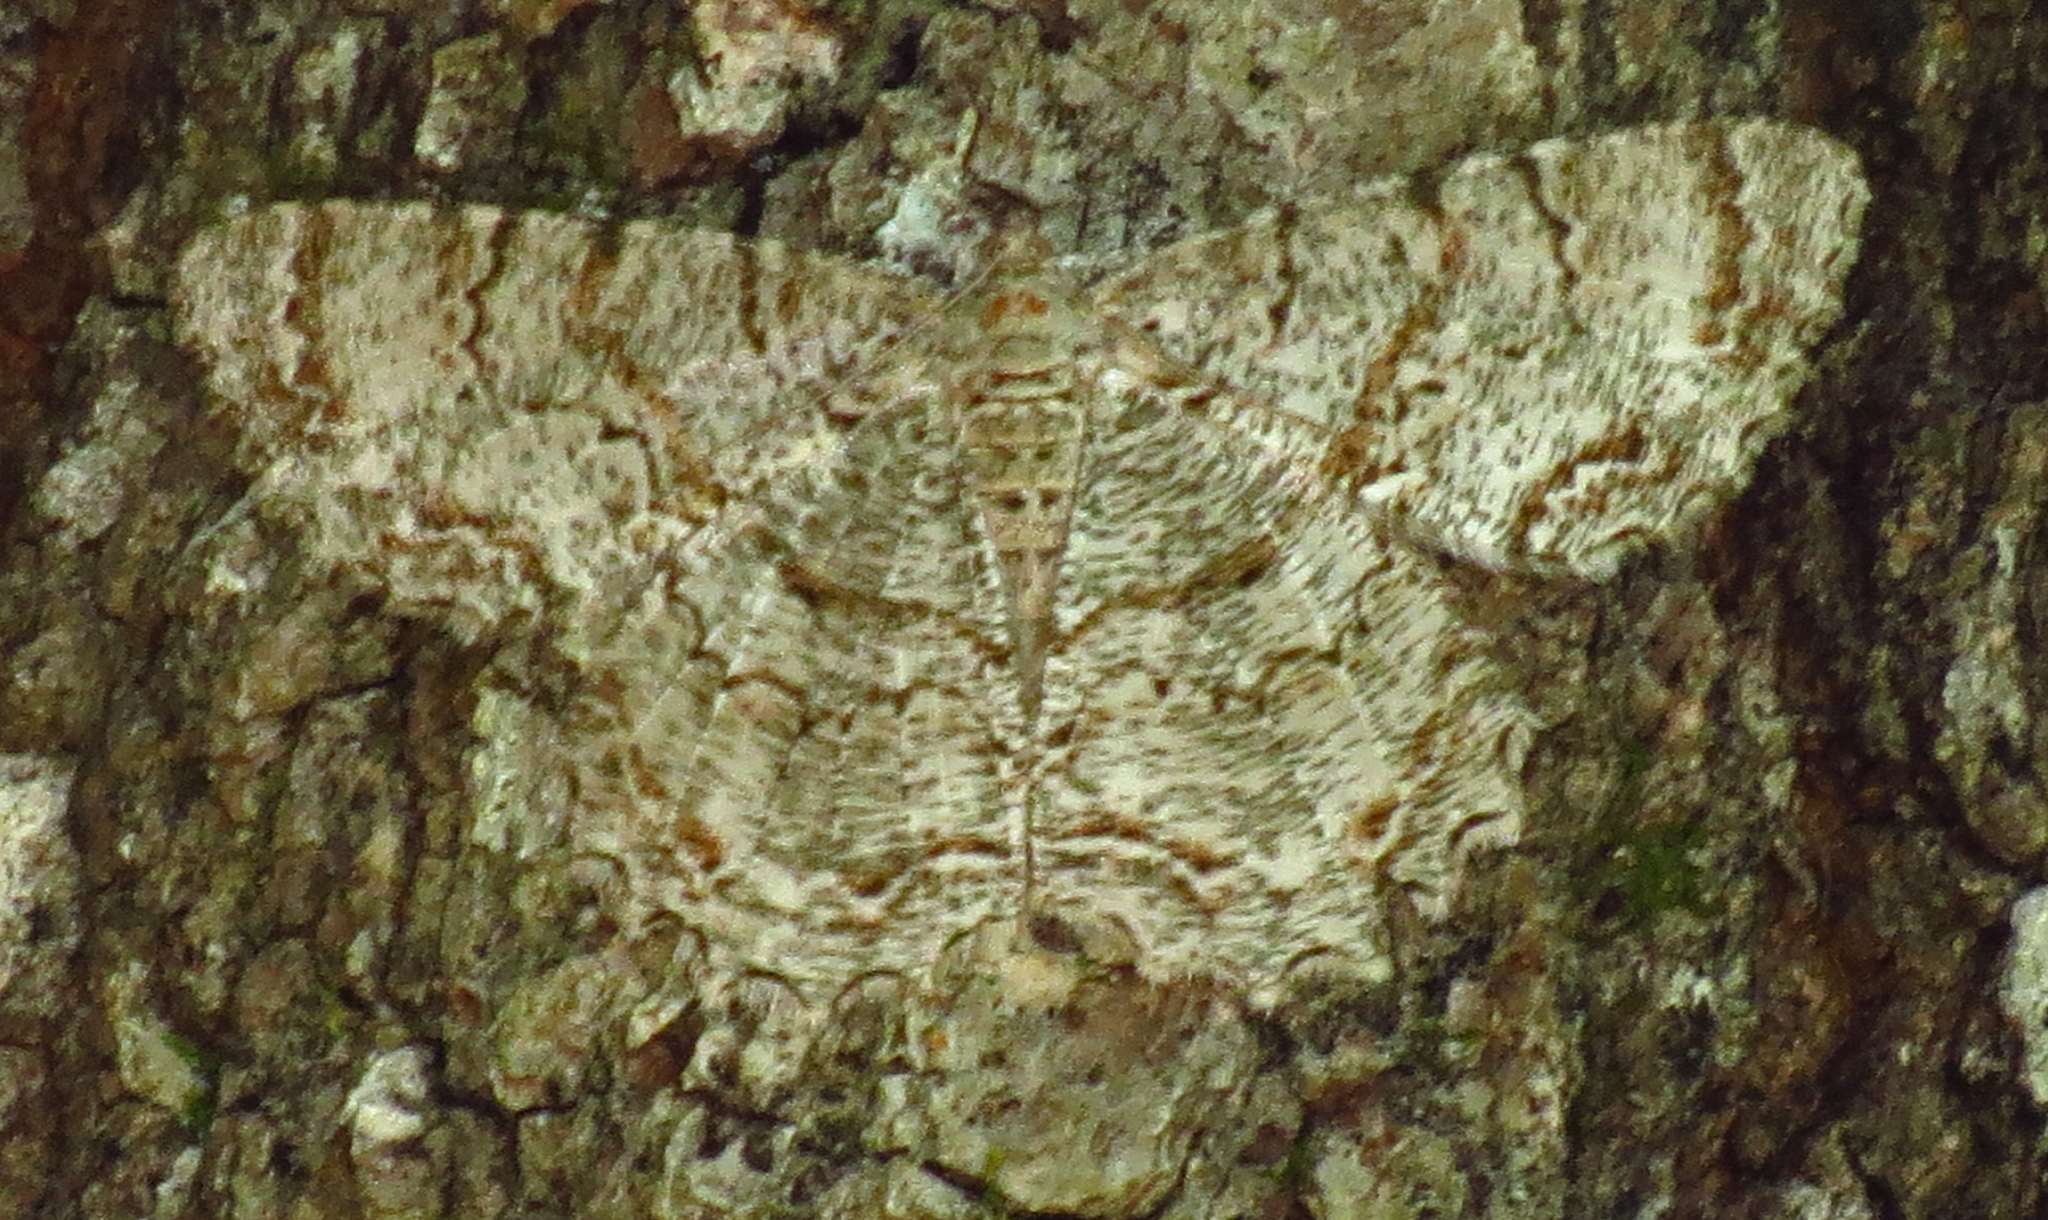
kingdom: Animalia
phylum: Arthropoda
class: Insecta
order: Lepidoptera
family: Geometridae
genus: Epimecis
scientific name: Epimecis hortaria
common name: Tulip-tree beauty
